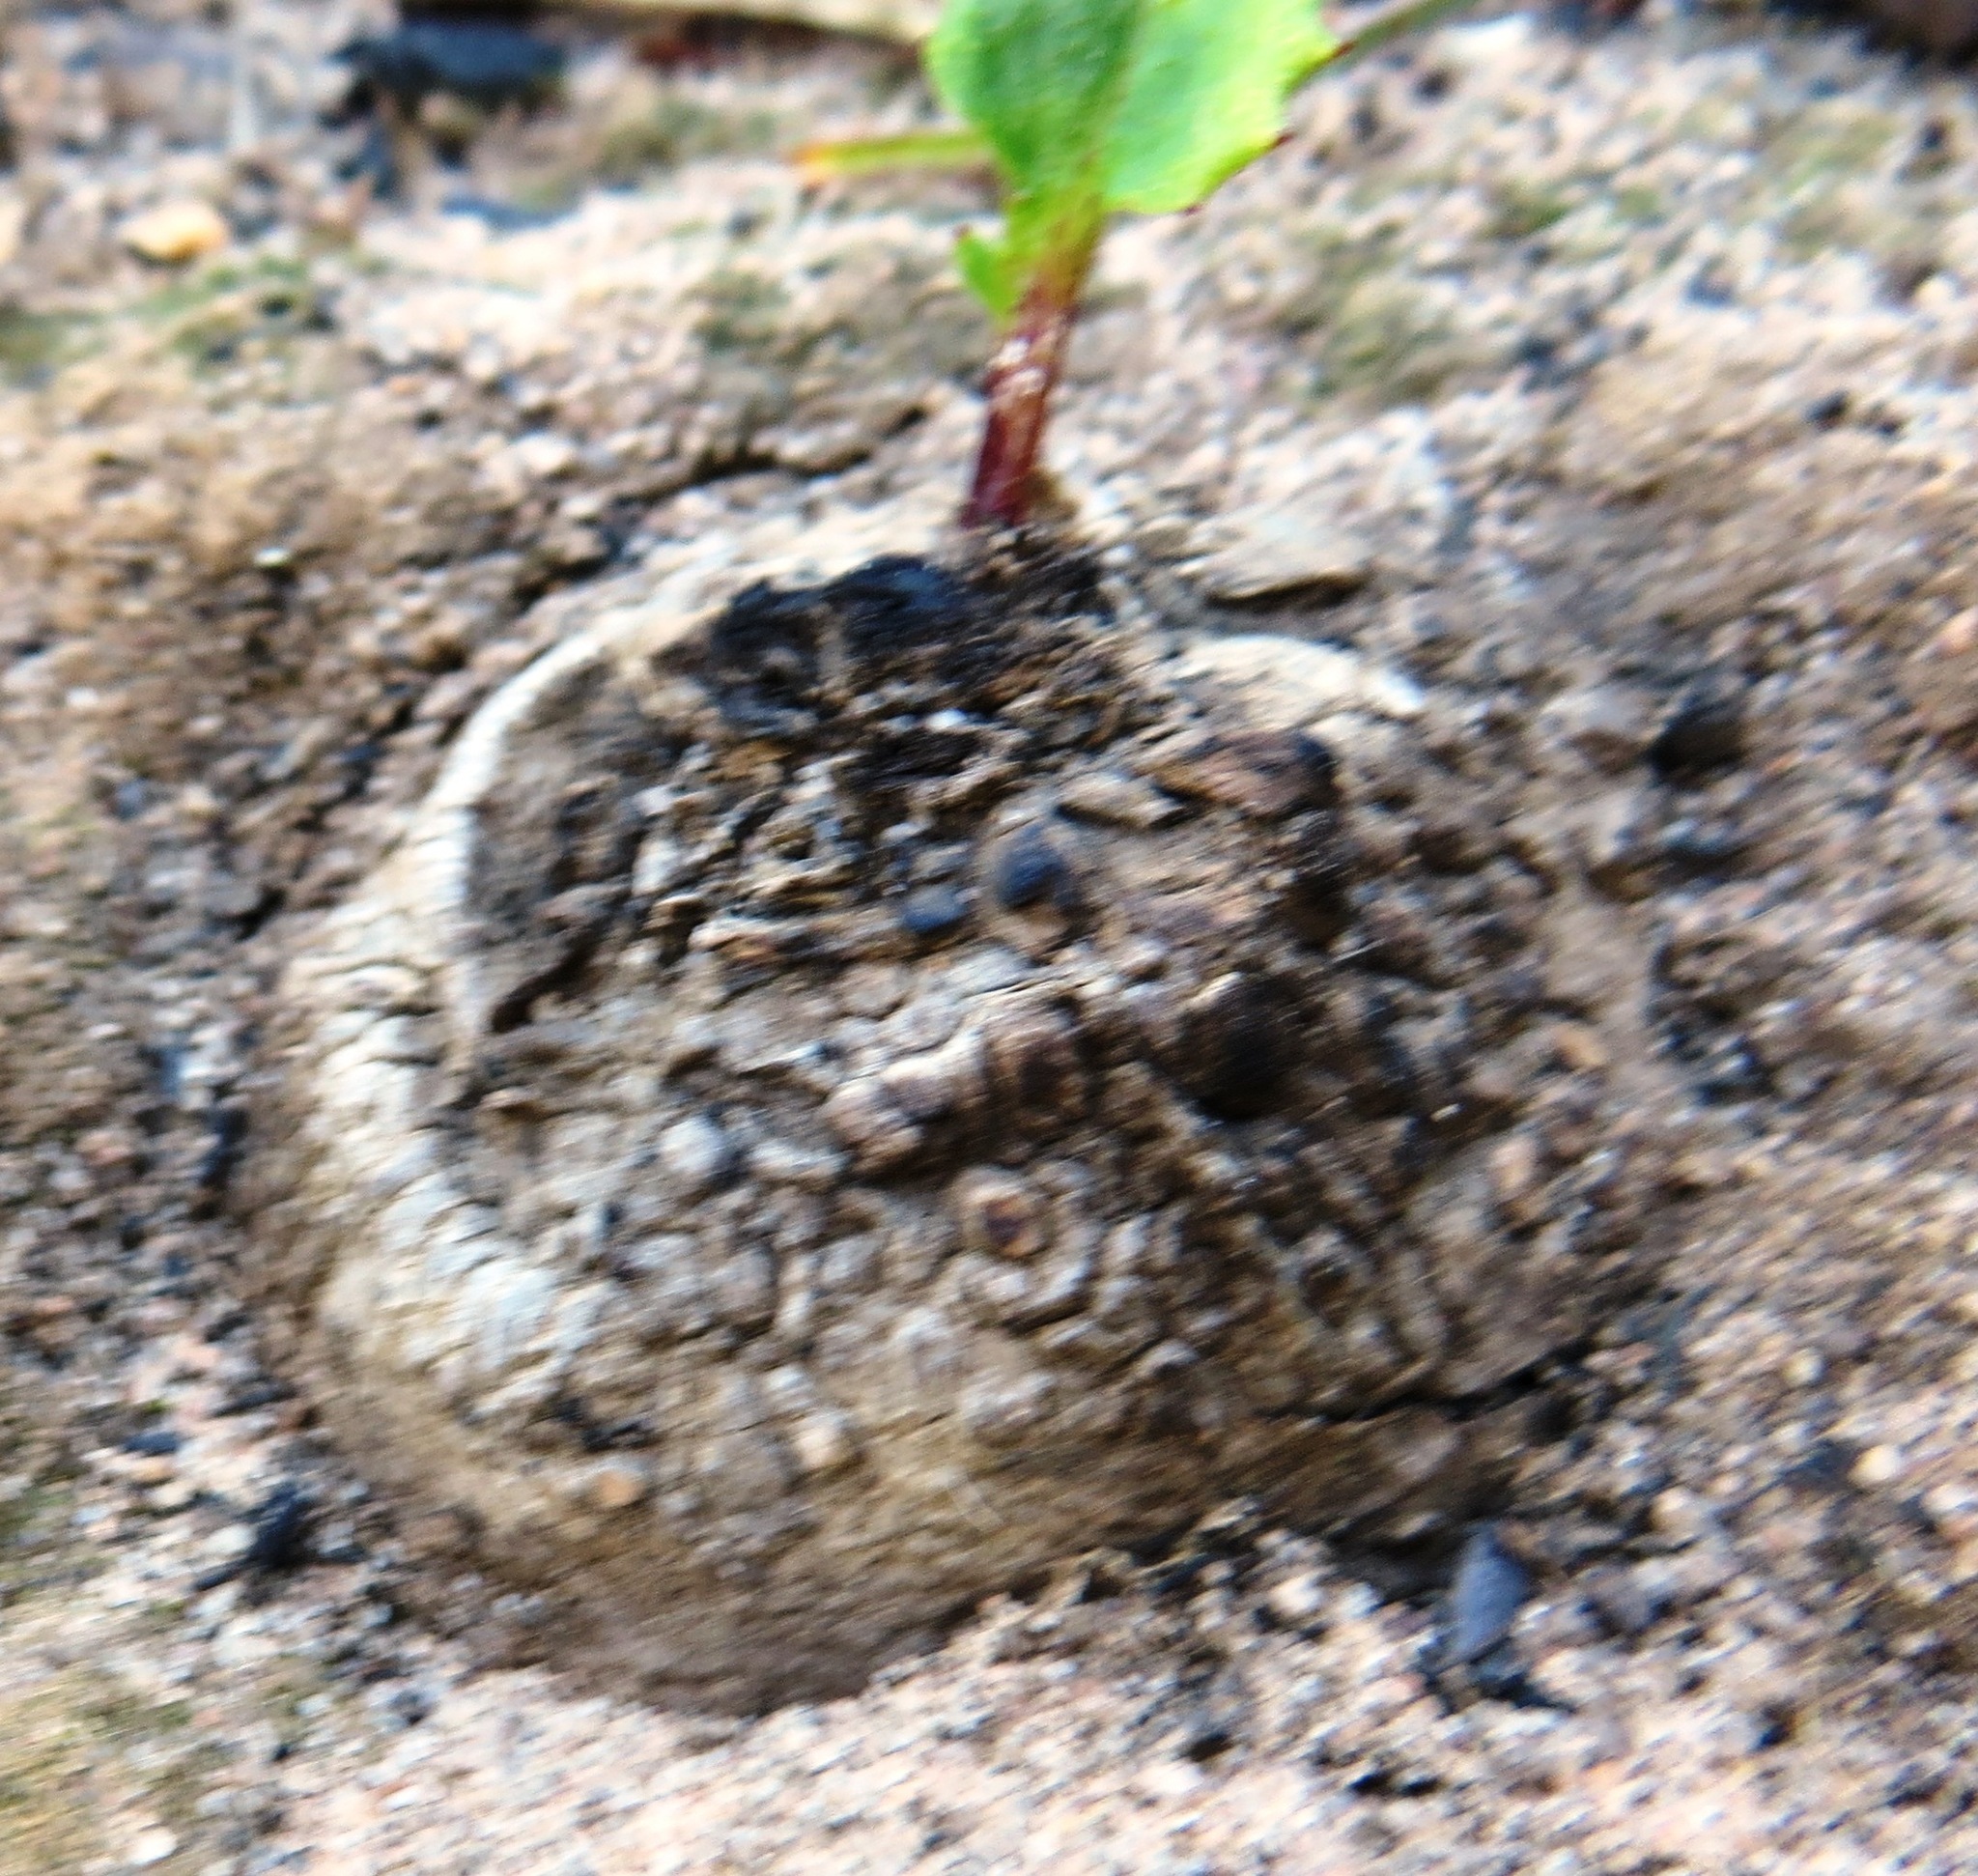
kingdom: Plantae
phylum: Tracheophyta
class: Magnoliopsida
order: Asterales
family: Asteraceae
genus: Othonna
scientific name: Othonna heterophylla
